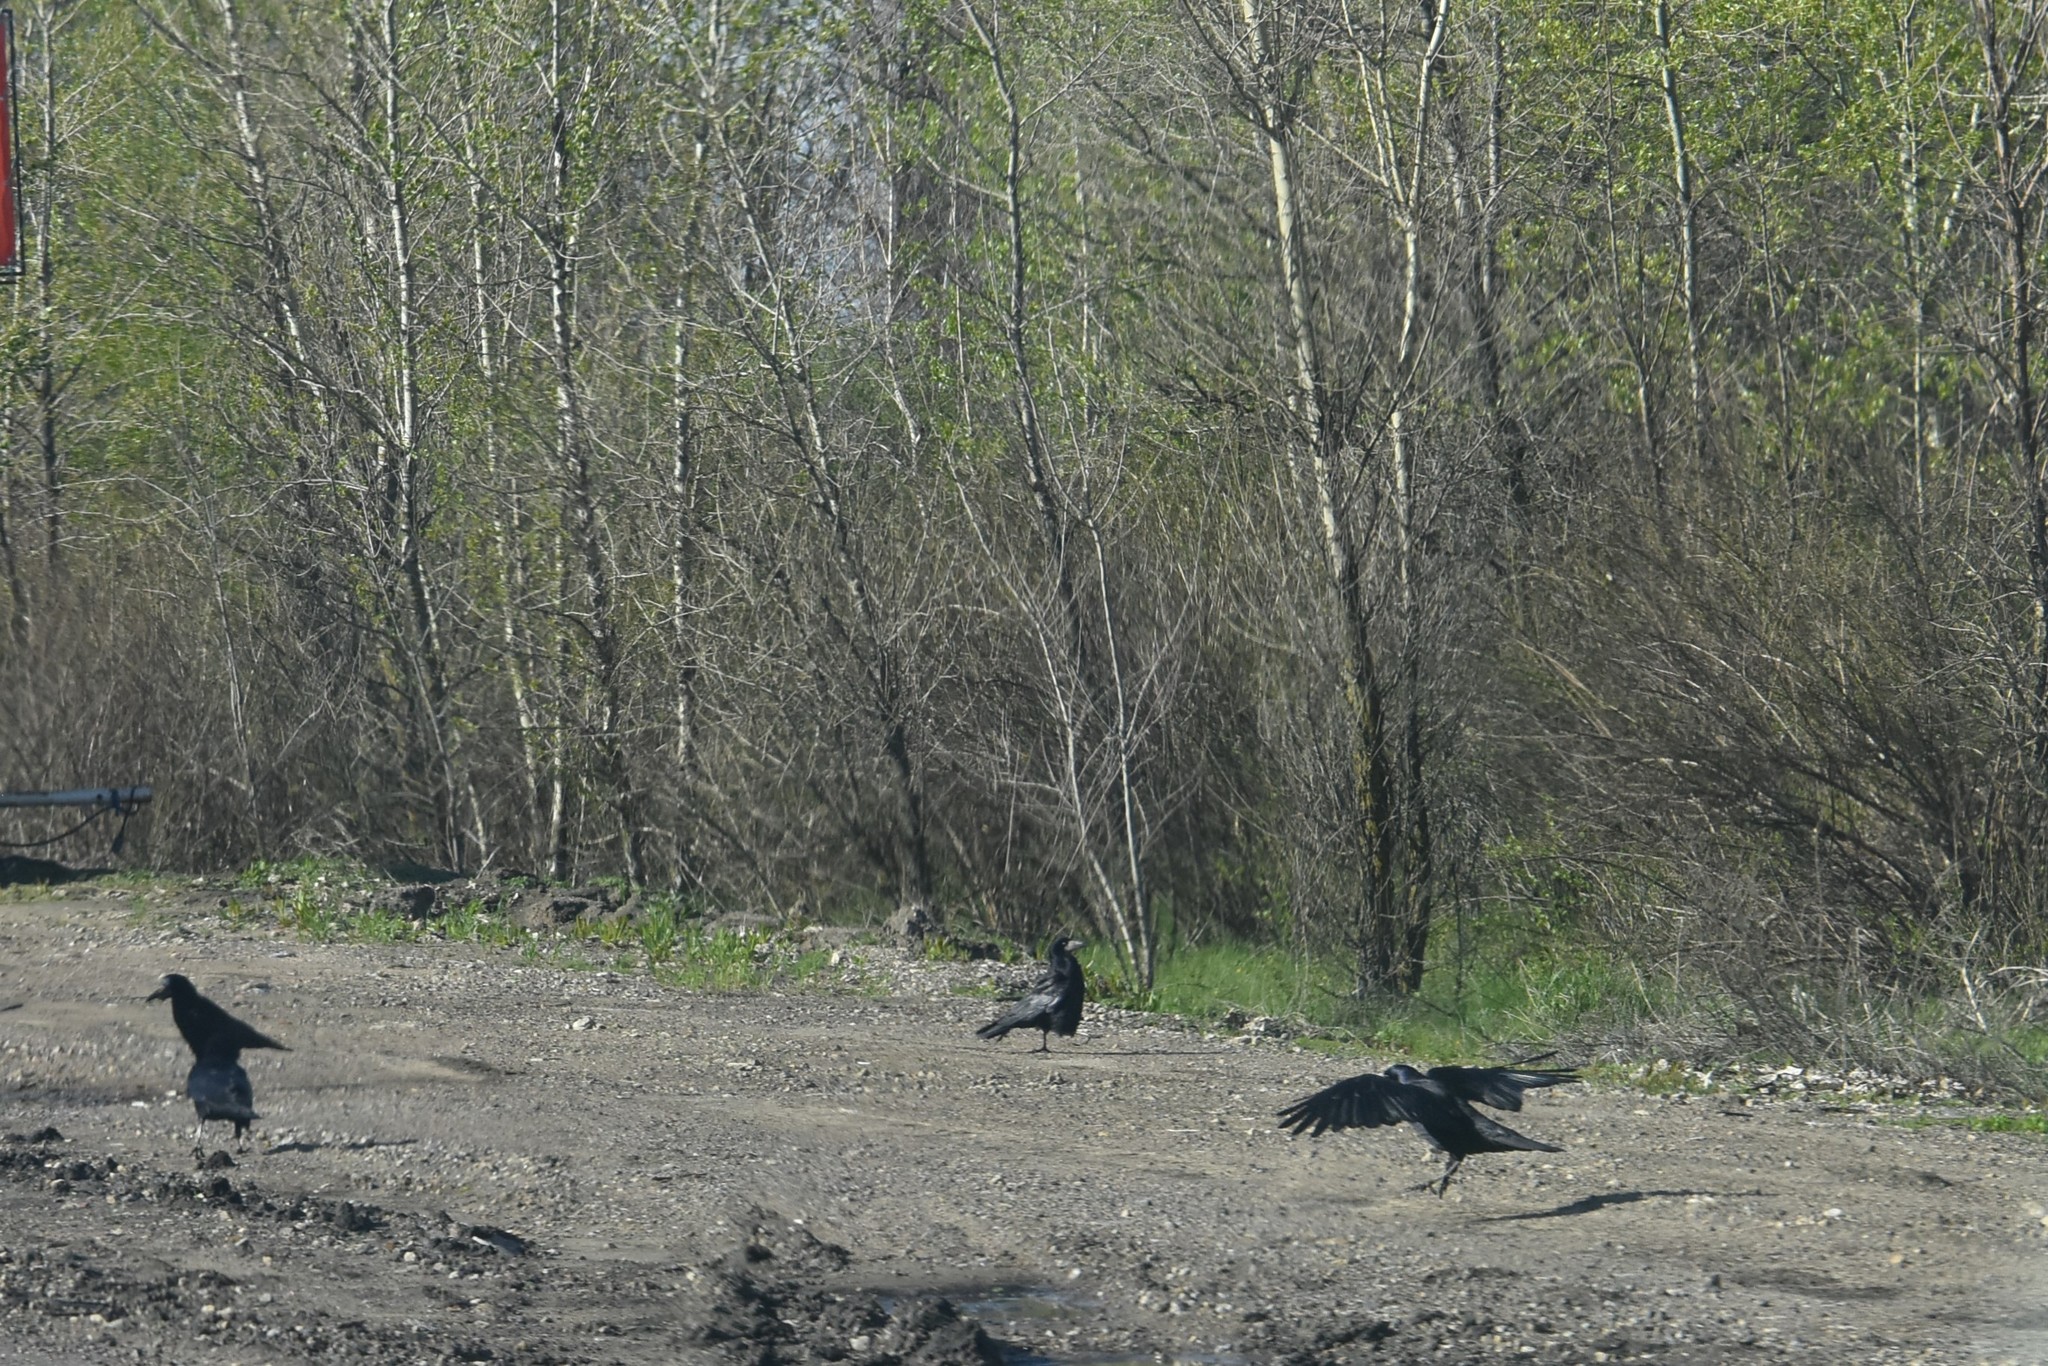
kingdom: Animalia
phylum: Chordata
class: Aves
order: Passeriformes
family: Corvidae
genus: Corvus
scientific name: Corvus frugilegus
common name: Rook
